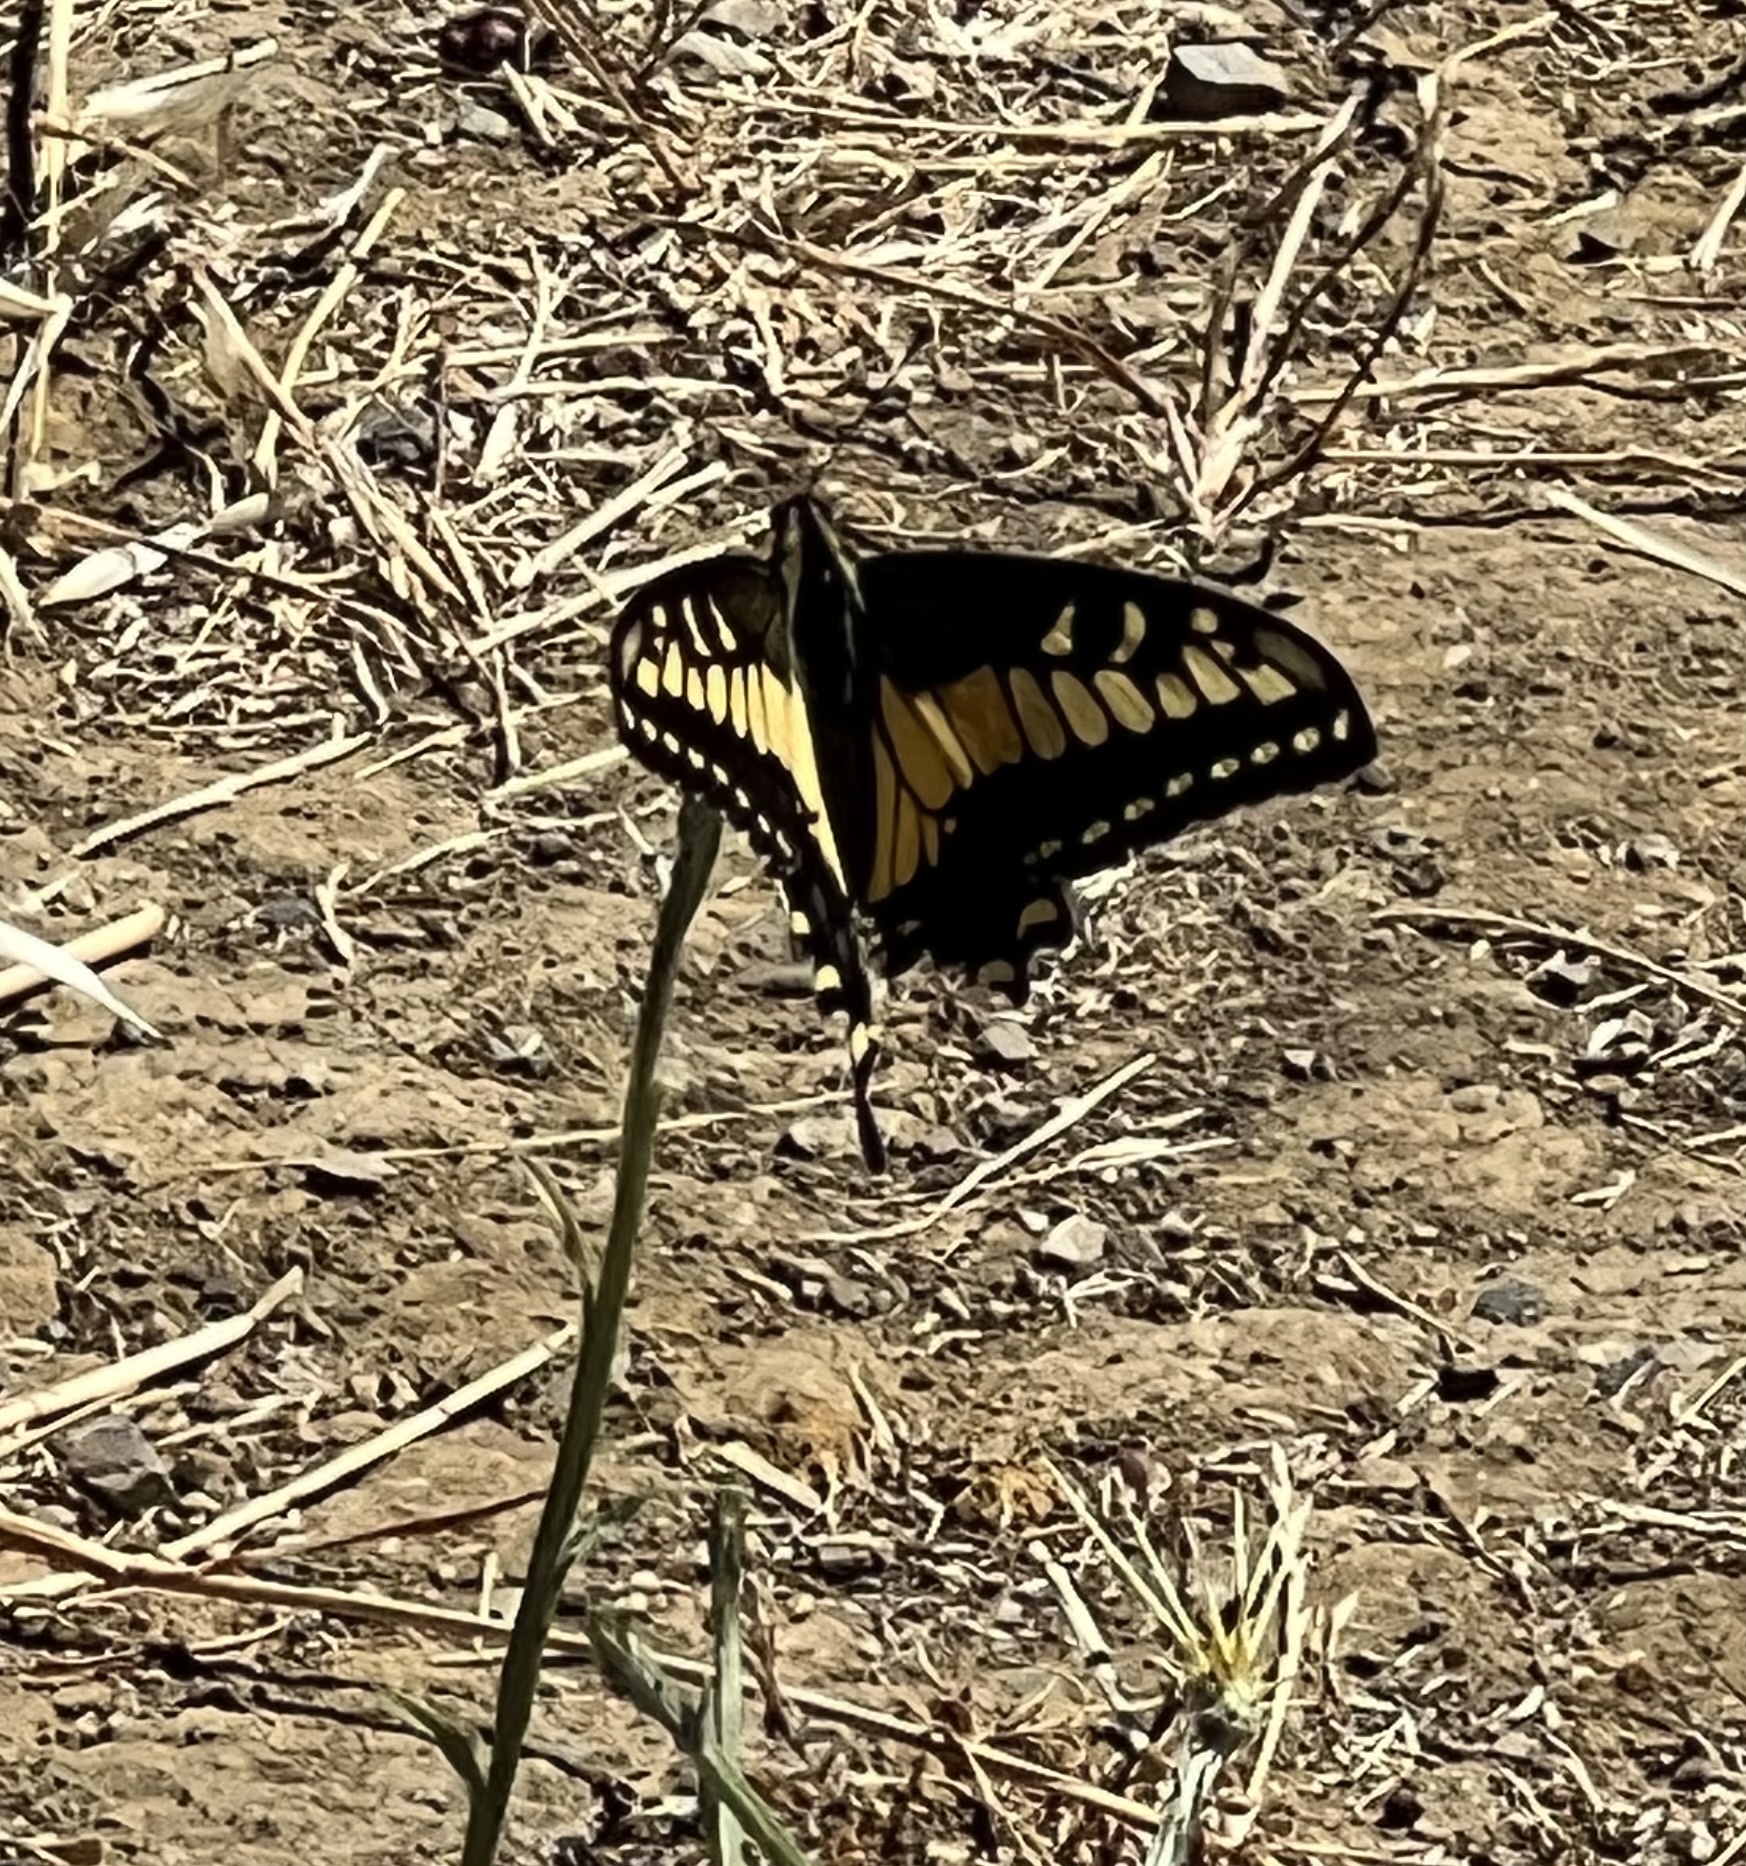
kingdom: Animalia
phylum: Arthropoda
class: Insecta
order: Lepidoptera
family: Papilionidae
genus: Papilio
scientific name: Papilio zelicaon
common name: Anise swallowtail
